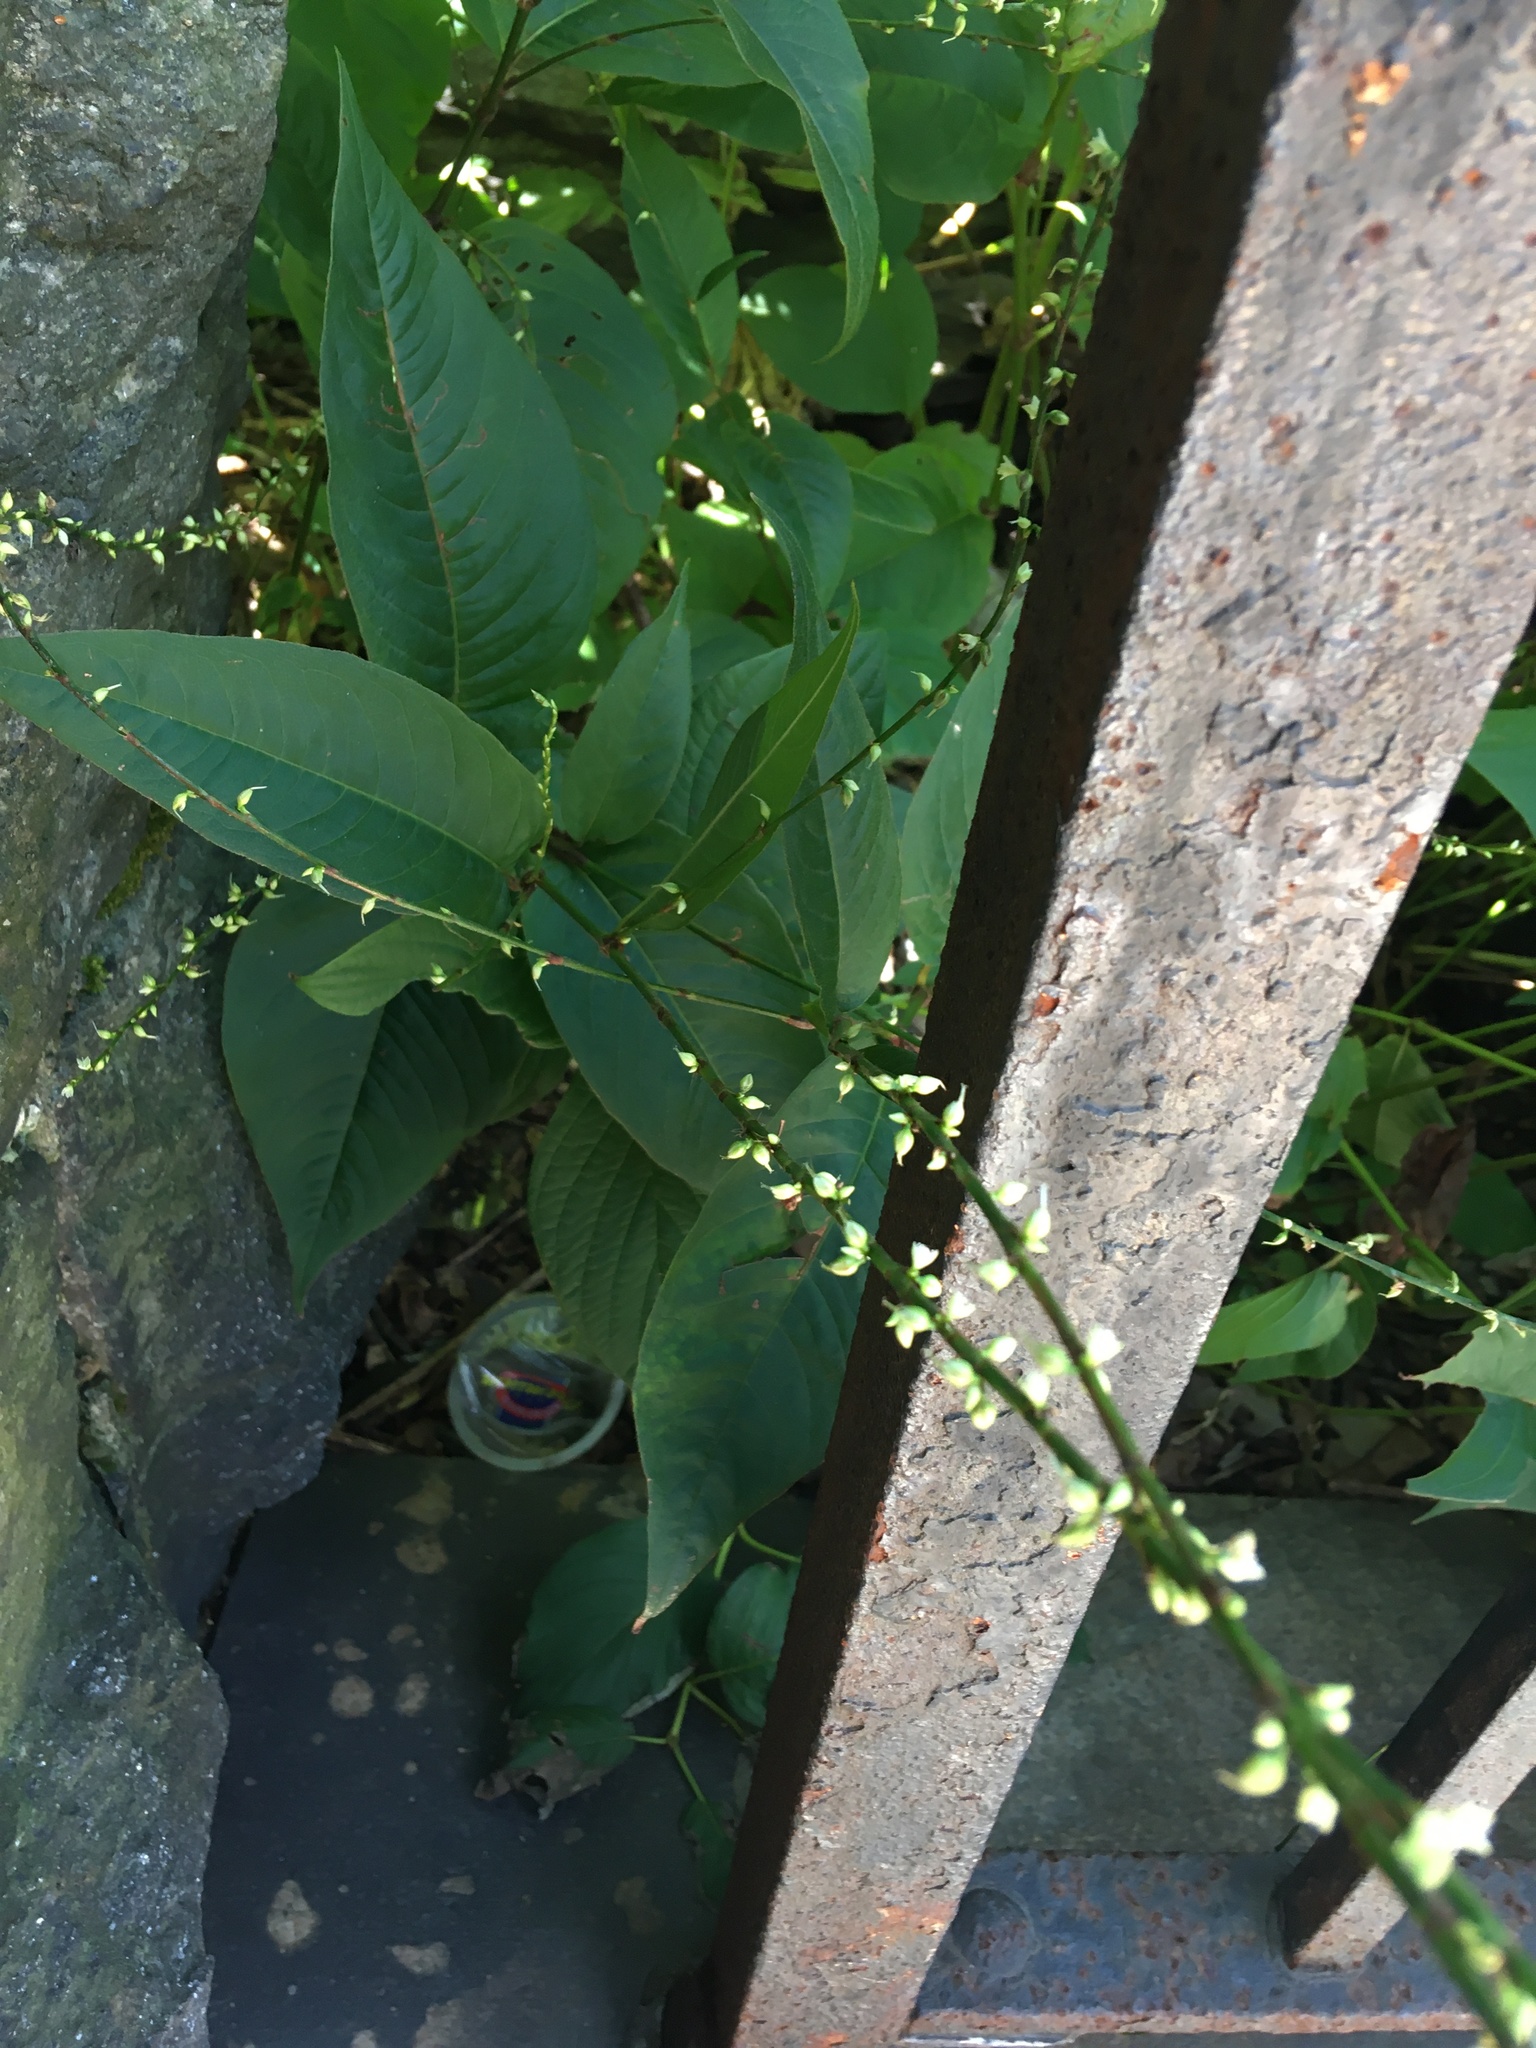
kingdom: Plantae
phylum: Tracheophyta
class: Magnoliopsida
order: Caryophyllales
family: Polygonaceae
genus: Persicaria
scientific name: Persicaria virginiana
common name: Jumpseed
